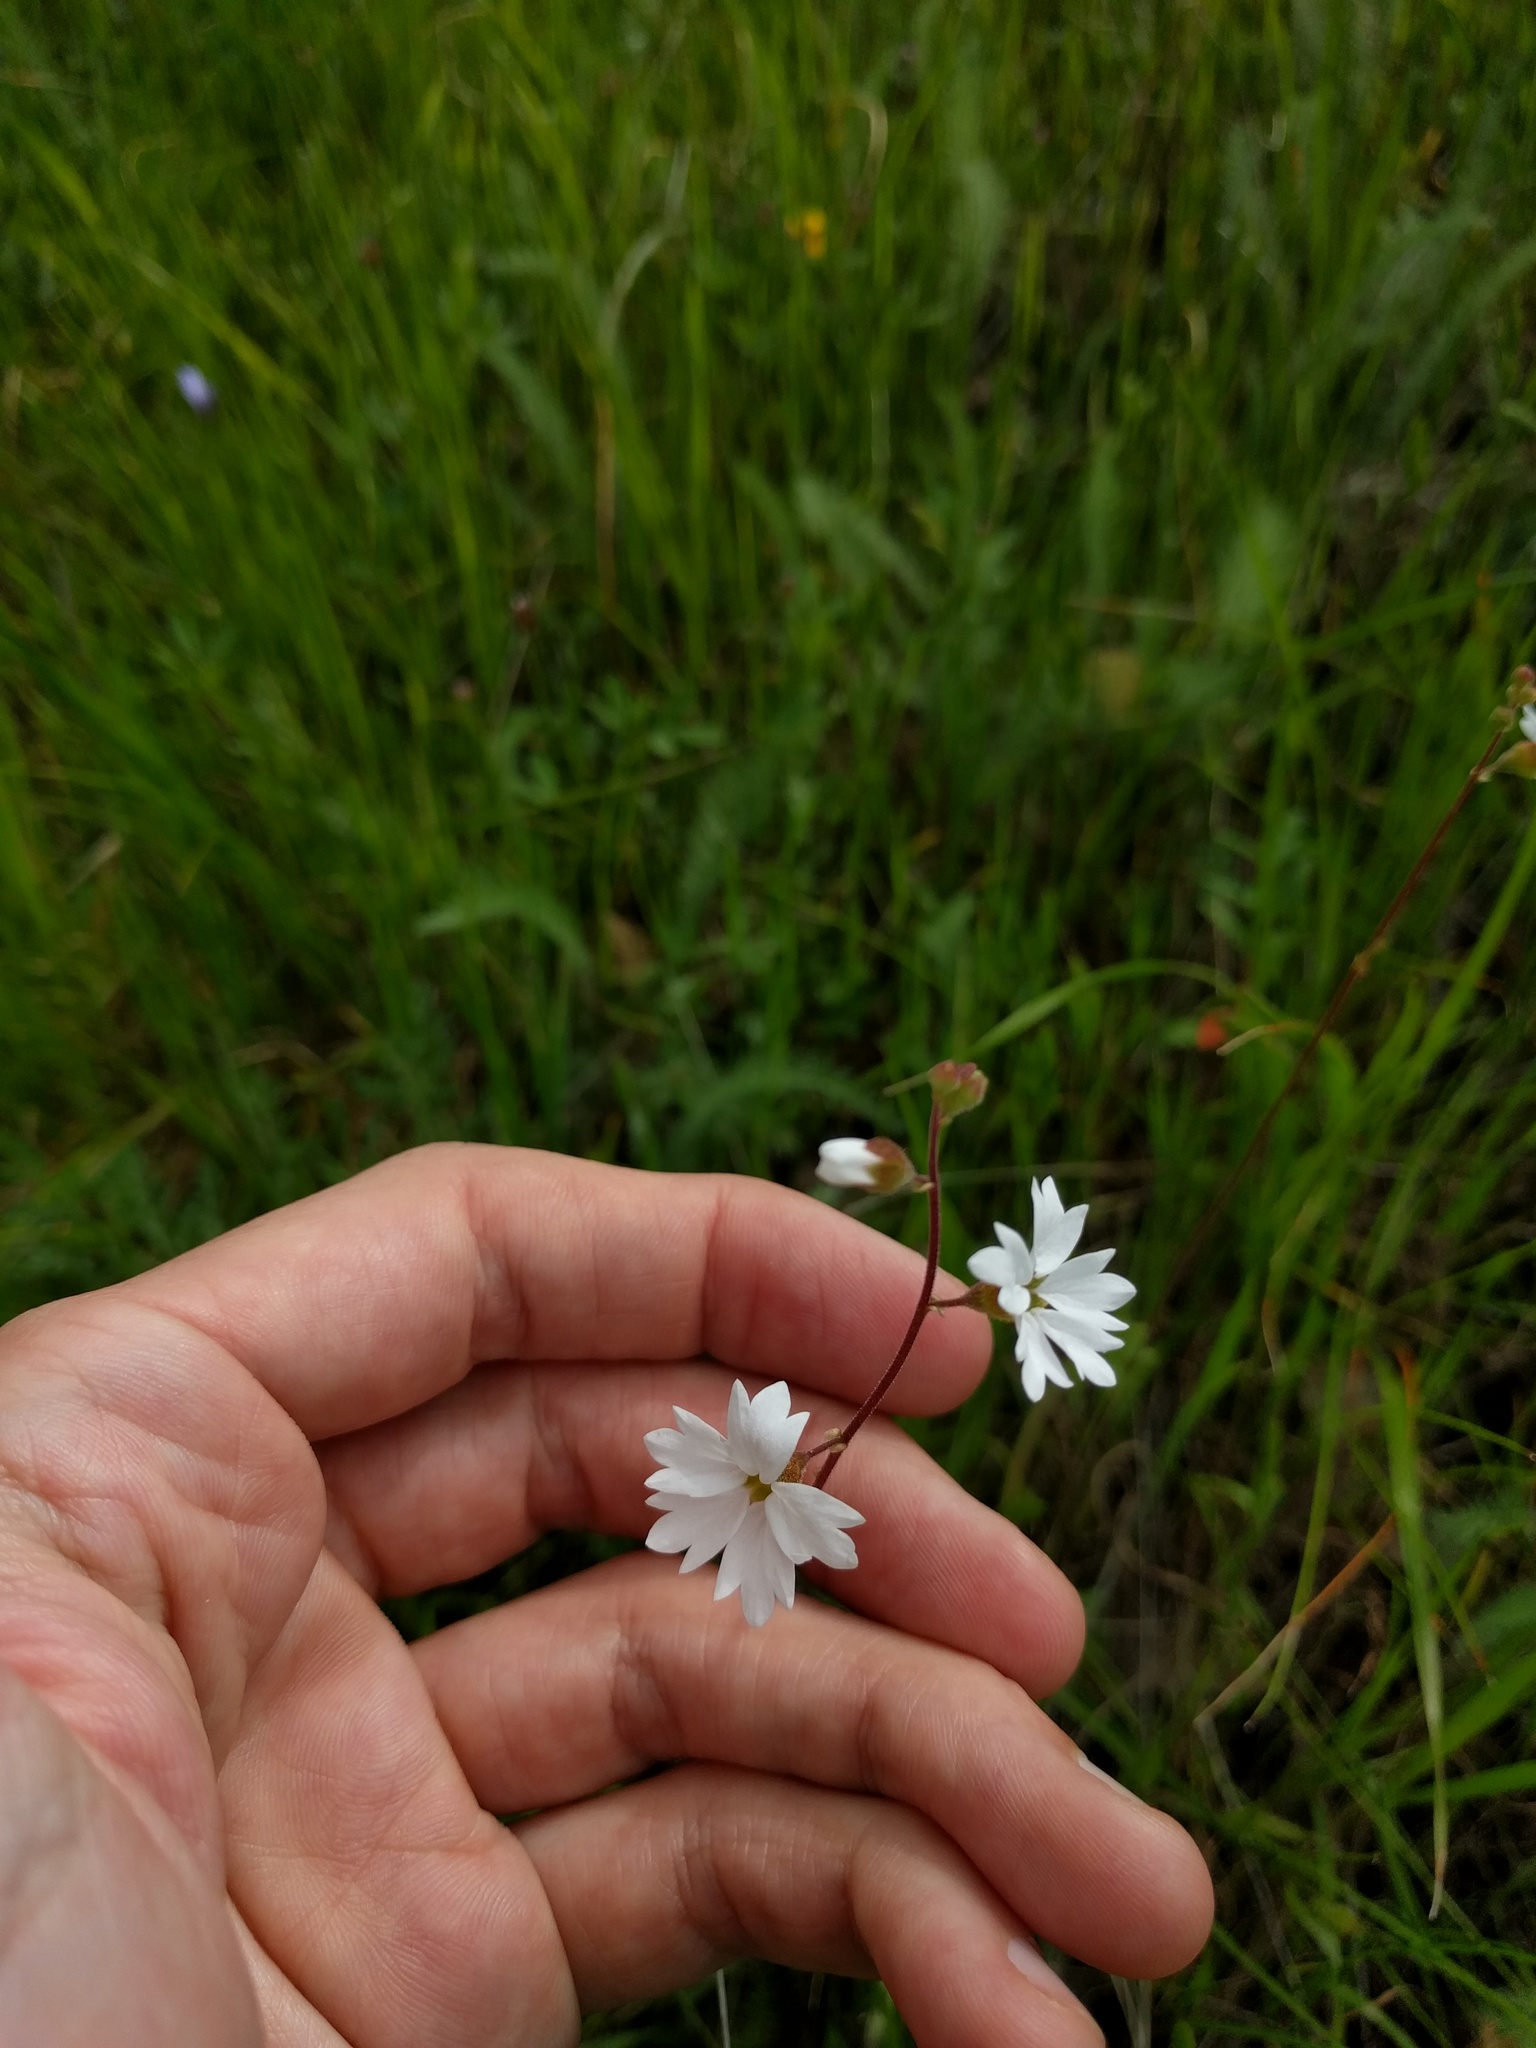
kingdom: Plantae
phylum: Tracheophyta
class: Magnoliopsida
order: Saxifragales
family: Saxifragaceae
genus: Lithophragma
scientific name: Lithophragma affine
